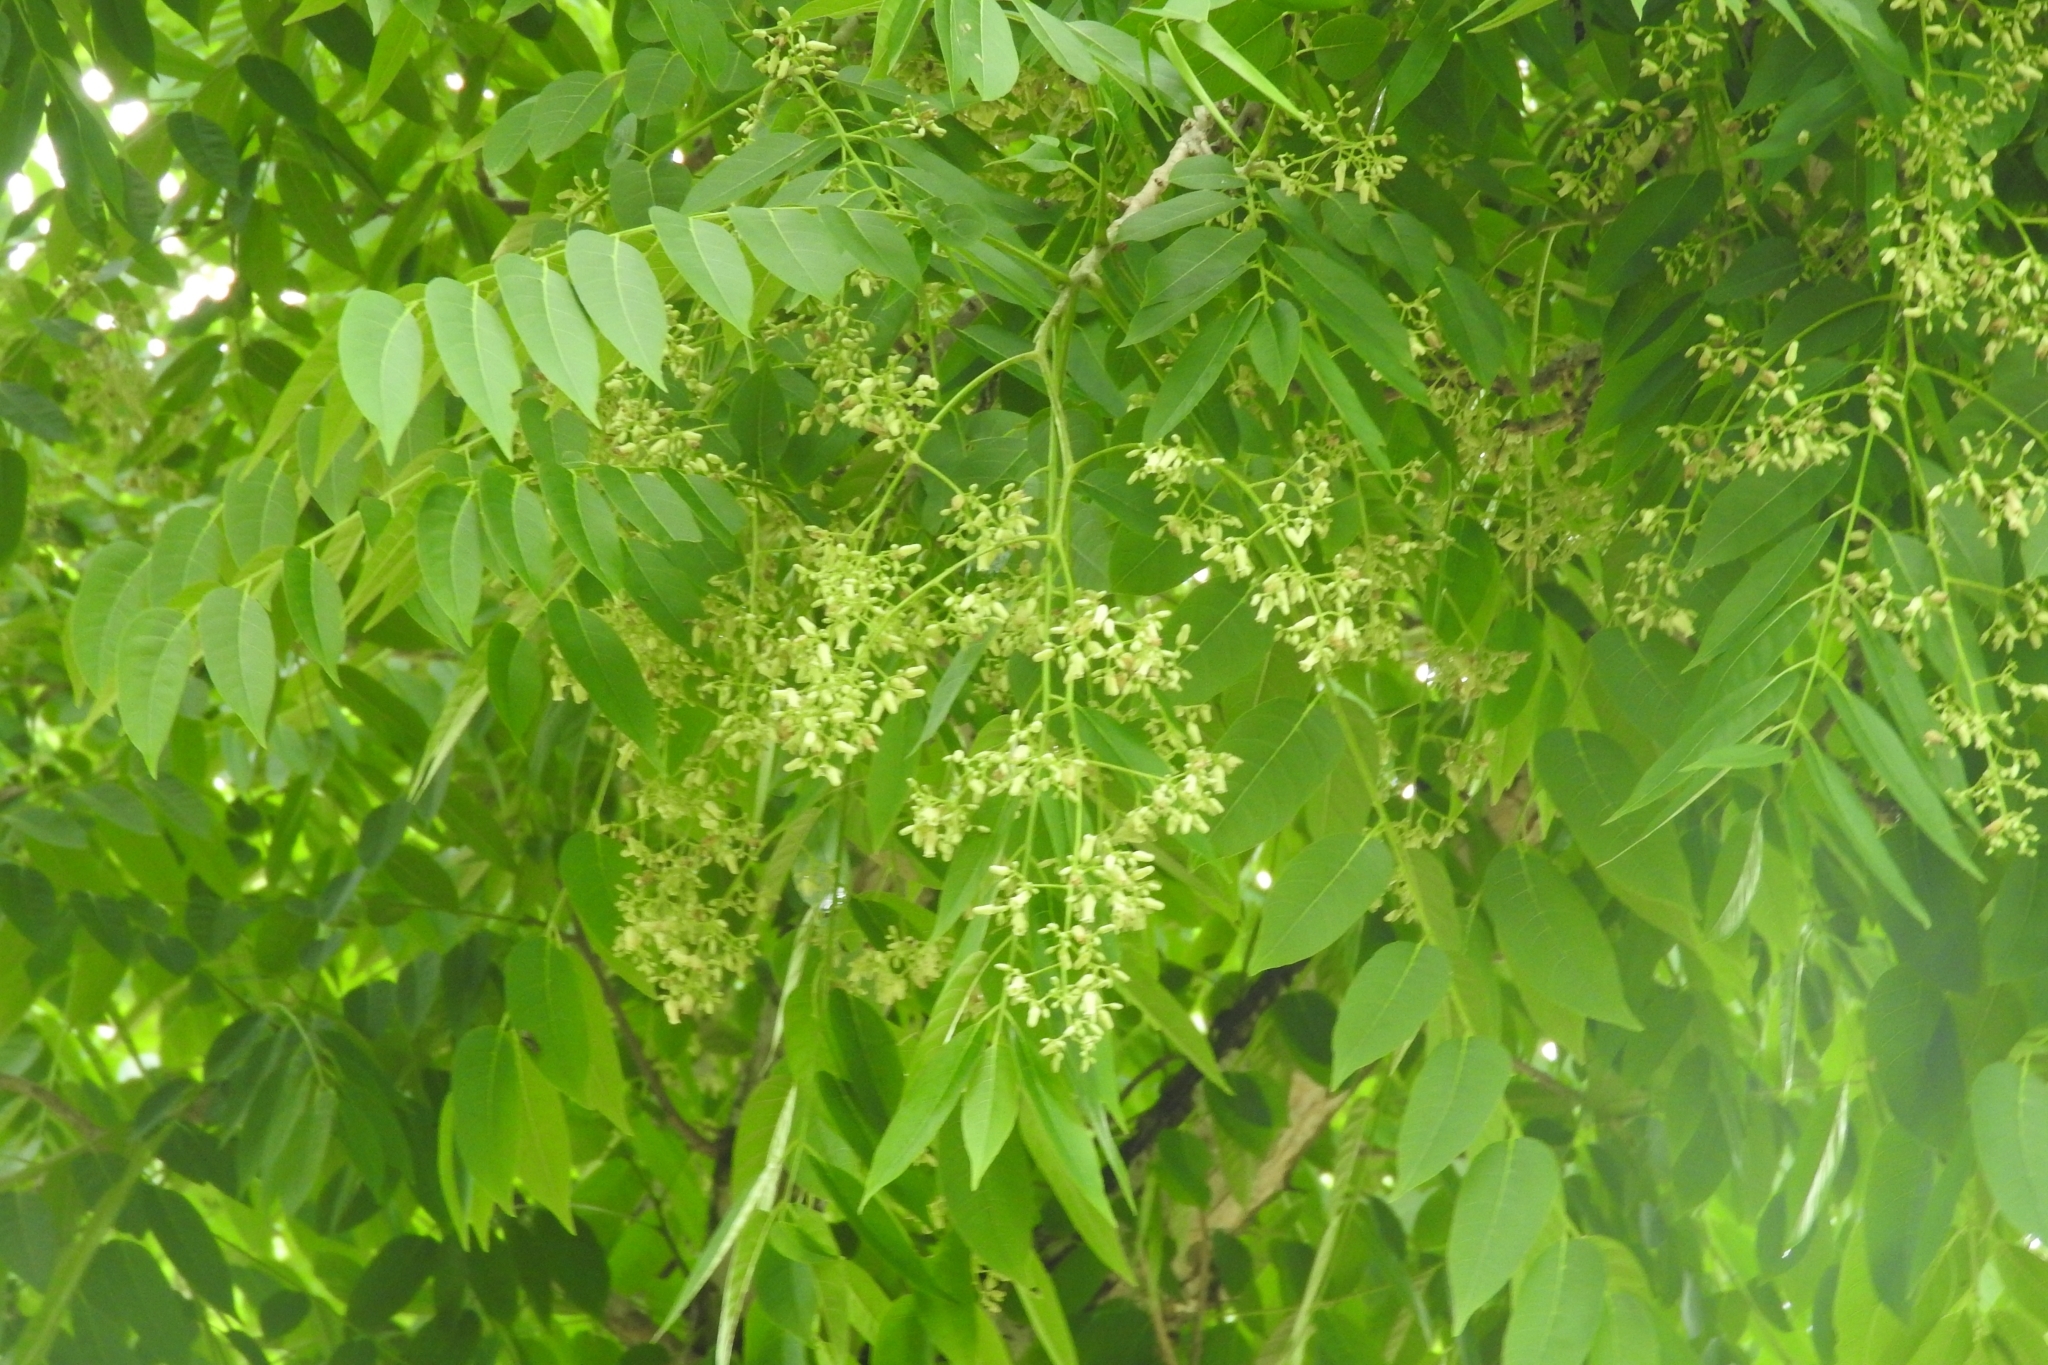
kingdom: Plantae
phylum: Tracheophyta
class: Magnoliopsida
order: Sapindales
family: Meliaceae
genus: Cedrela
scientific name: Cedrela odorata
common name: Red cedar
